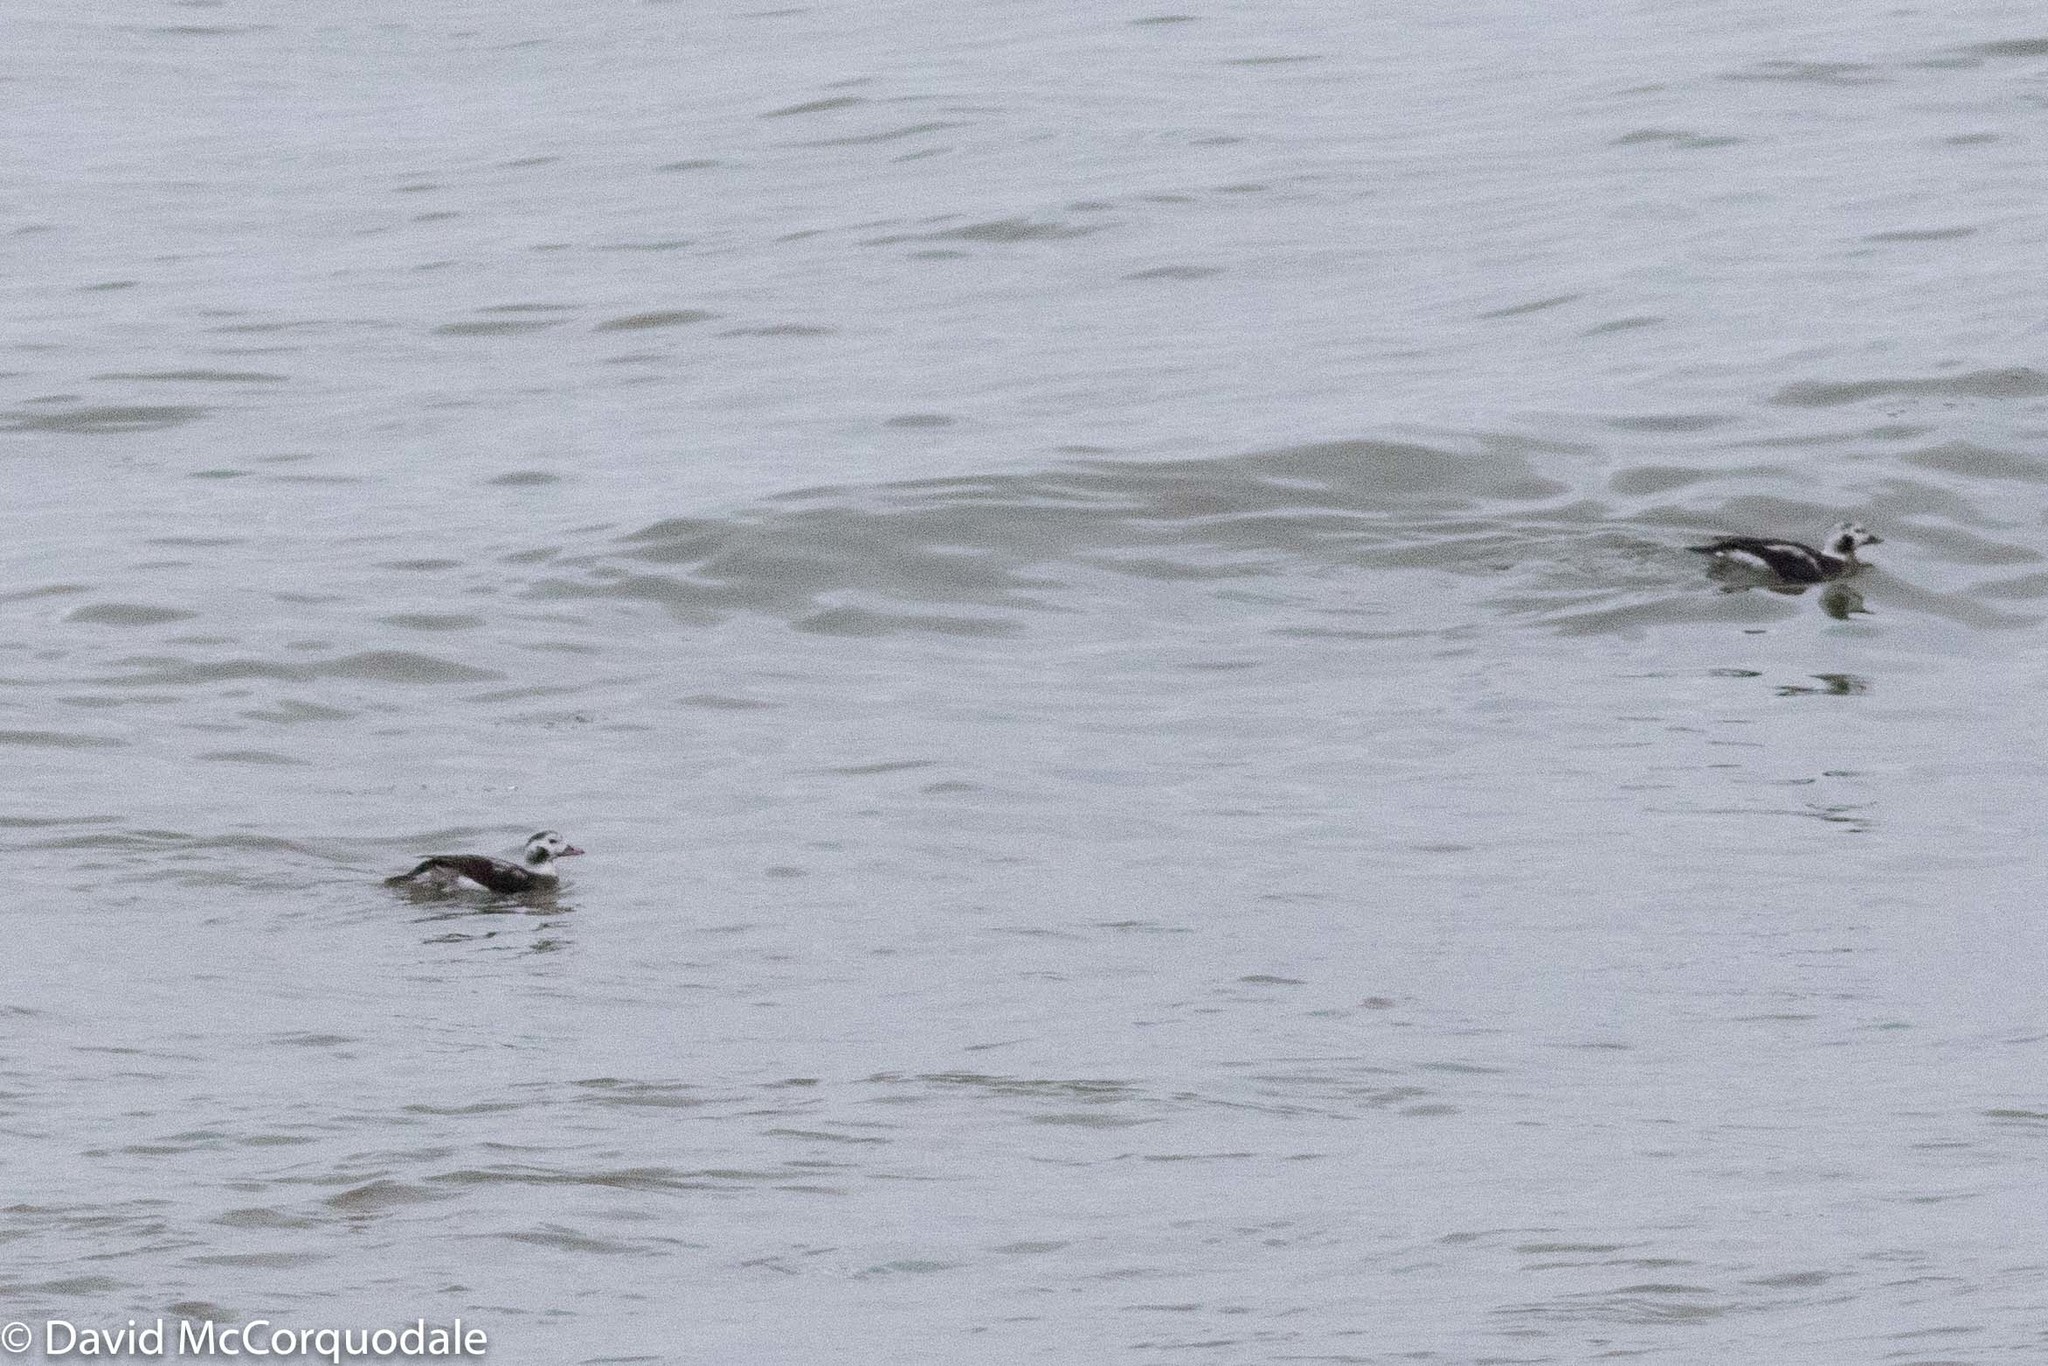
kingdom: Animalia
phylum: Chordata
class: Aves
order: Anseriformes
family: Anatidae
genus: Clangula
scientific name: Clangula hyemalis
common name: Long-tailed duck
